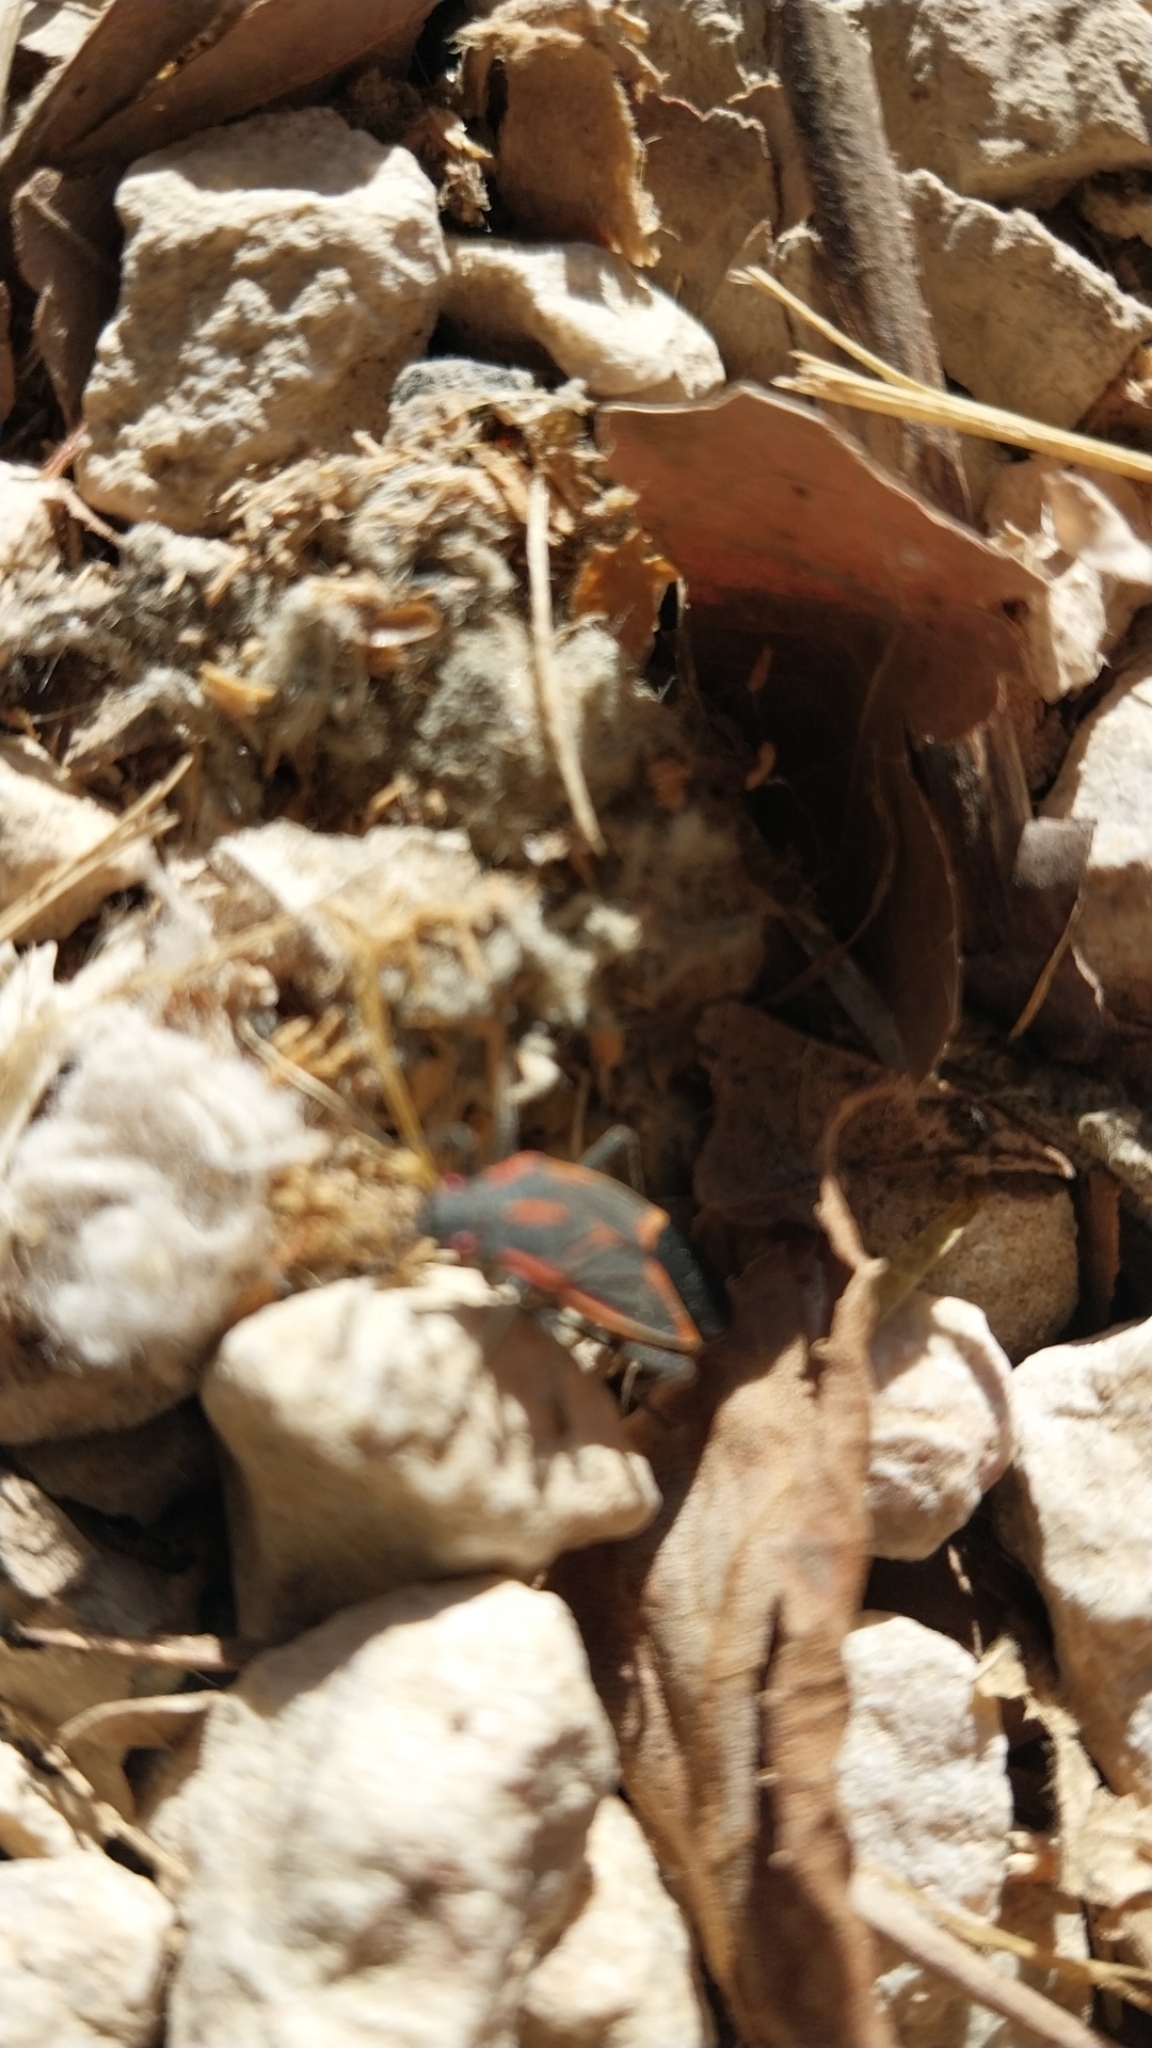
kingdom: Animalia
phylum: Arthropoda
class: Insecta
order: Hemiptera
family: Rhopalidae
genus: Boisea
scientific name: Boisea trivittata
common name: Boxelder bug
